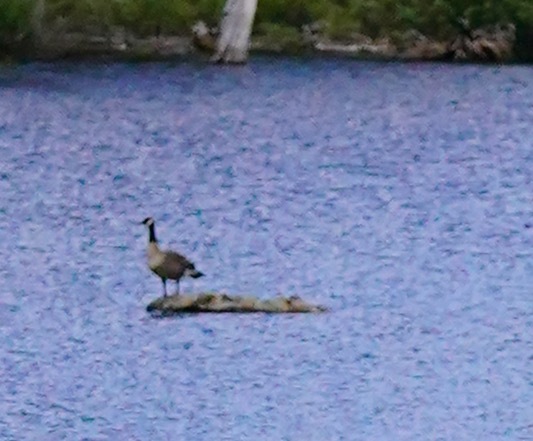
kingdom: Animalia
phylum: Chordata
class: Aves
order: Anseriformes
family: Anatidae
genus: Branta
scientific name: Branta canadensis
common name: Canada goose
